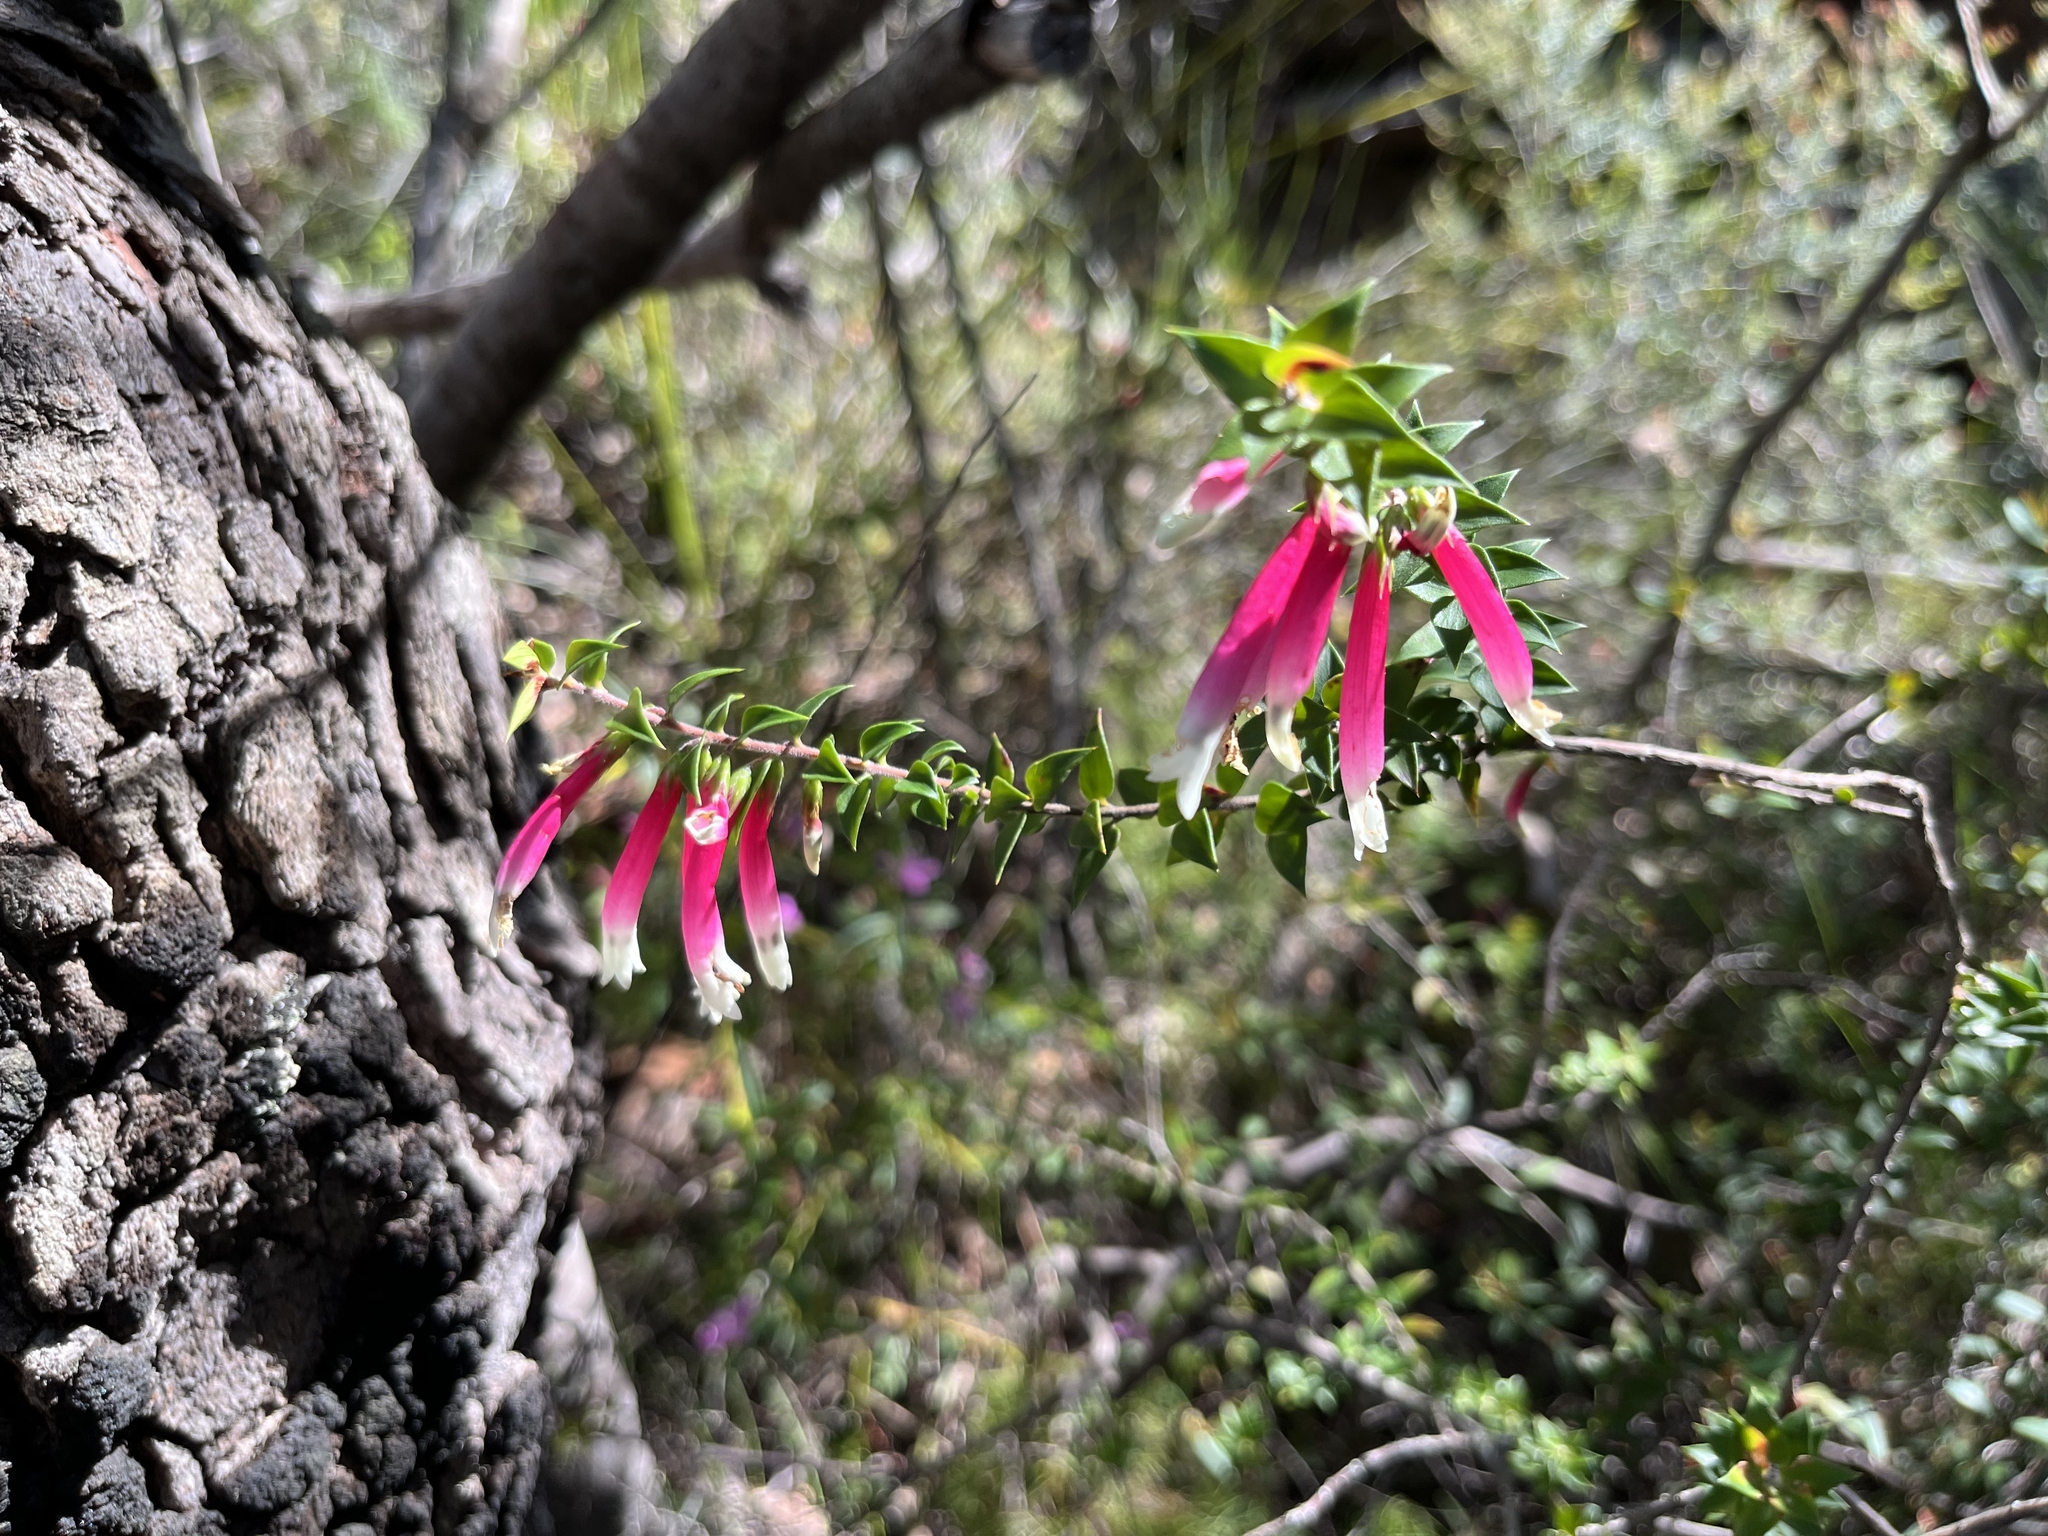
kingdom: Plantae
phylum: Tracheophyta
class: Magnoliopsida
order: Ericales
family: Ericaceae
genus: Epacris
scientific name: Epacris longiflora
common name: Fuchsia-heath
